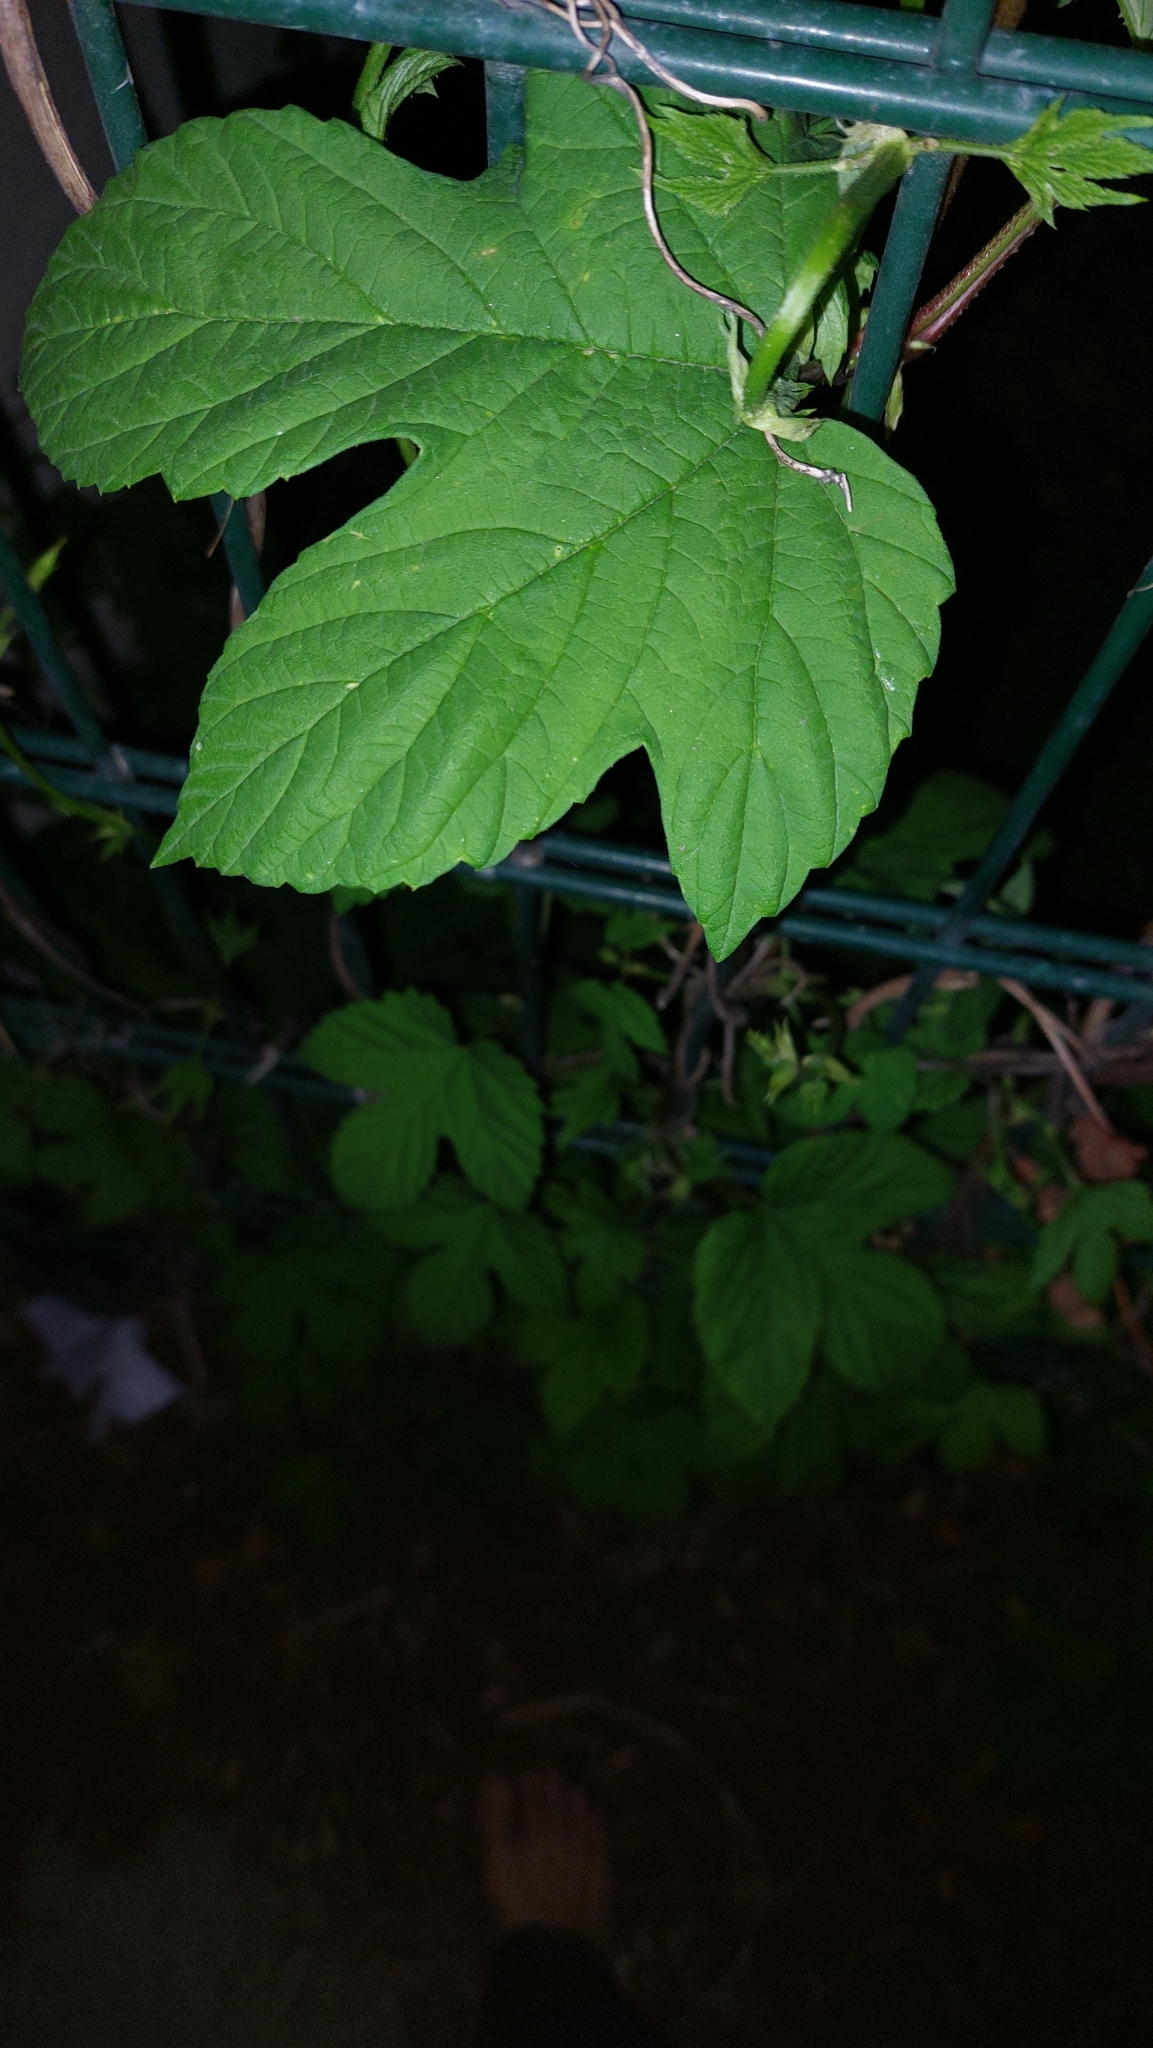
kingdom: Plantae
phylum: Tracheophyta
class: Magnoliopsida
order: Rosales
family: Cannabaceae
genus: Humulus
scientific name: Humulus lupulus
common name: Hop
